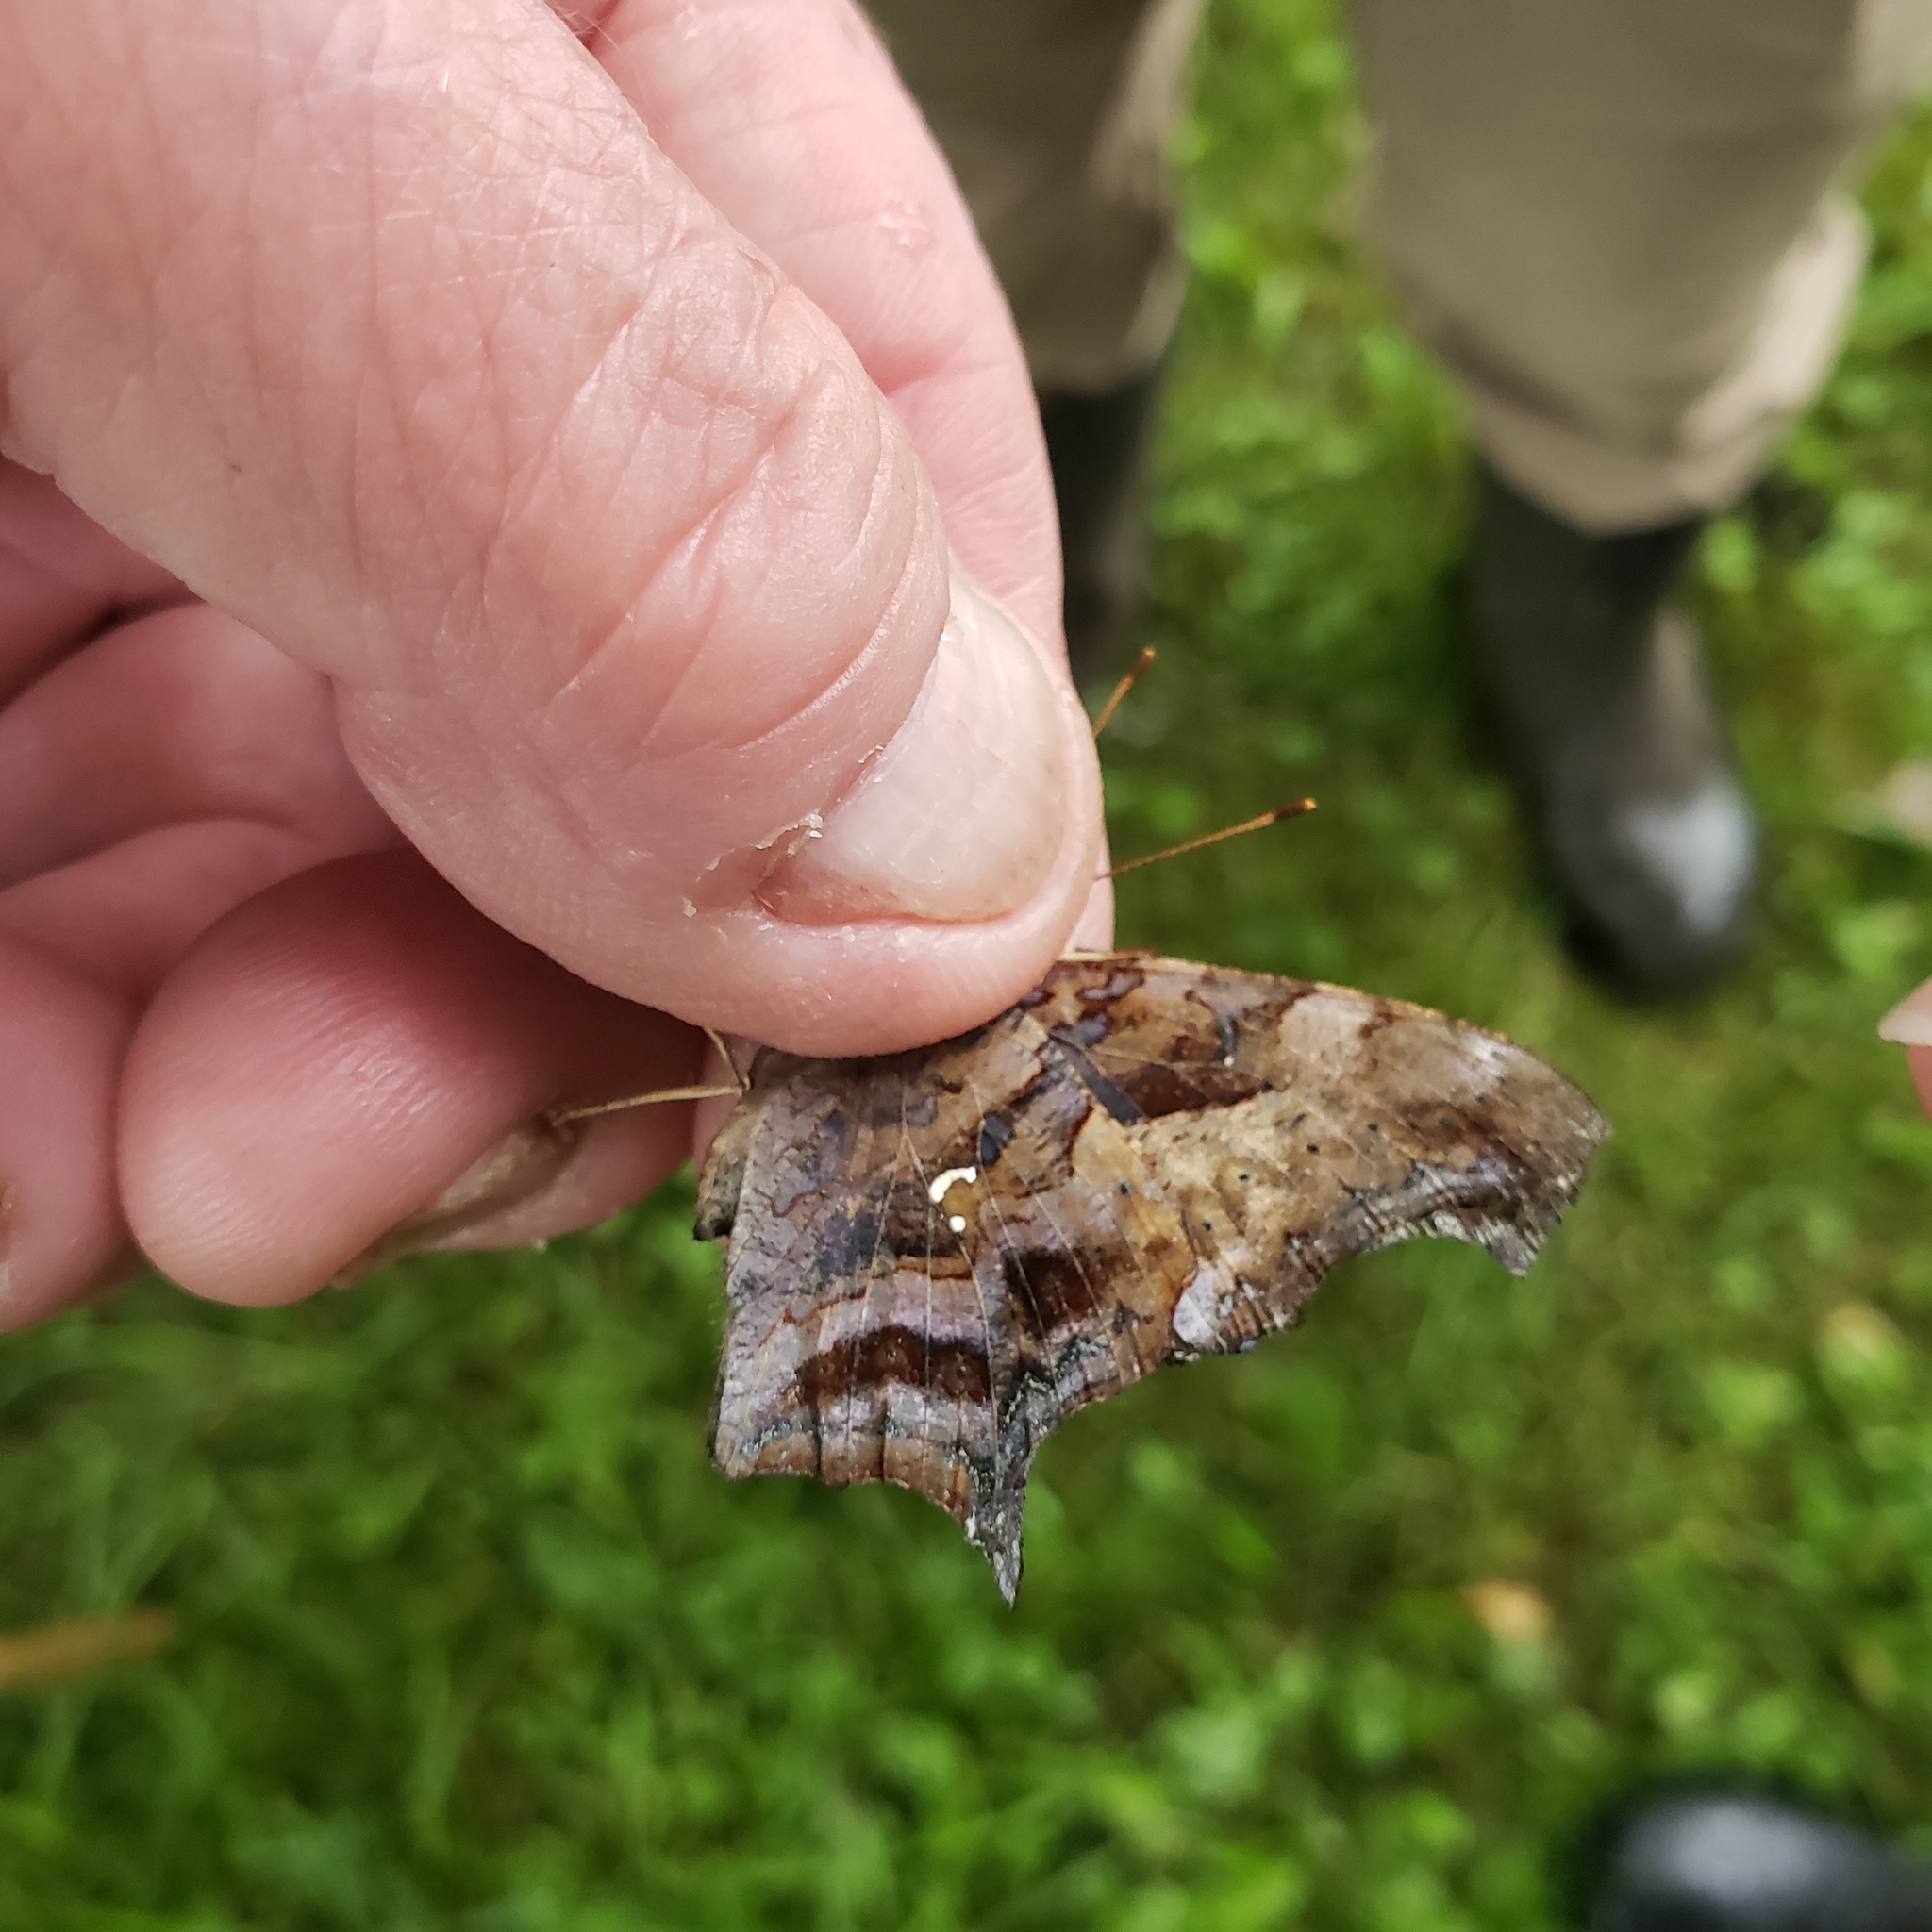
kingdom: Animalia
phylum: Arthropoda
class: Insecta
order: Lepidoptera
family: Nymphalidae
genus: Polygonia
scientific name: Polygonia interrogationis
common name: Question mark
